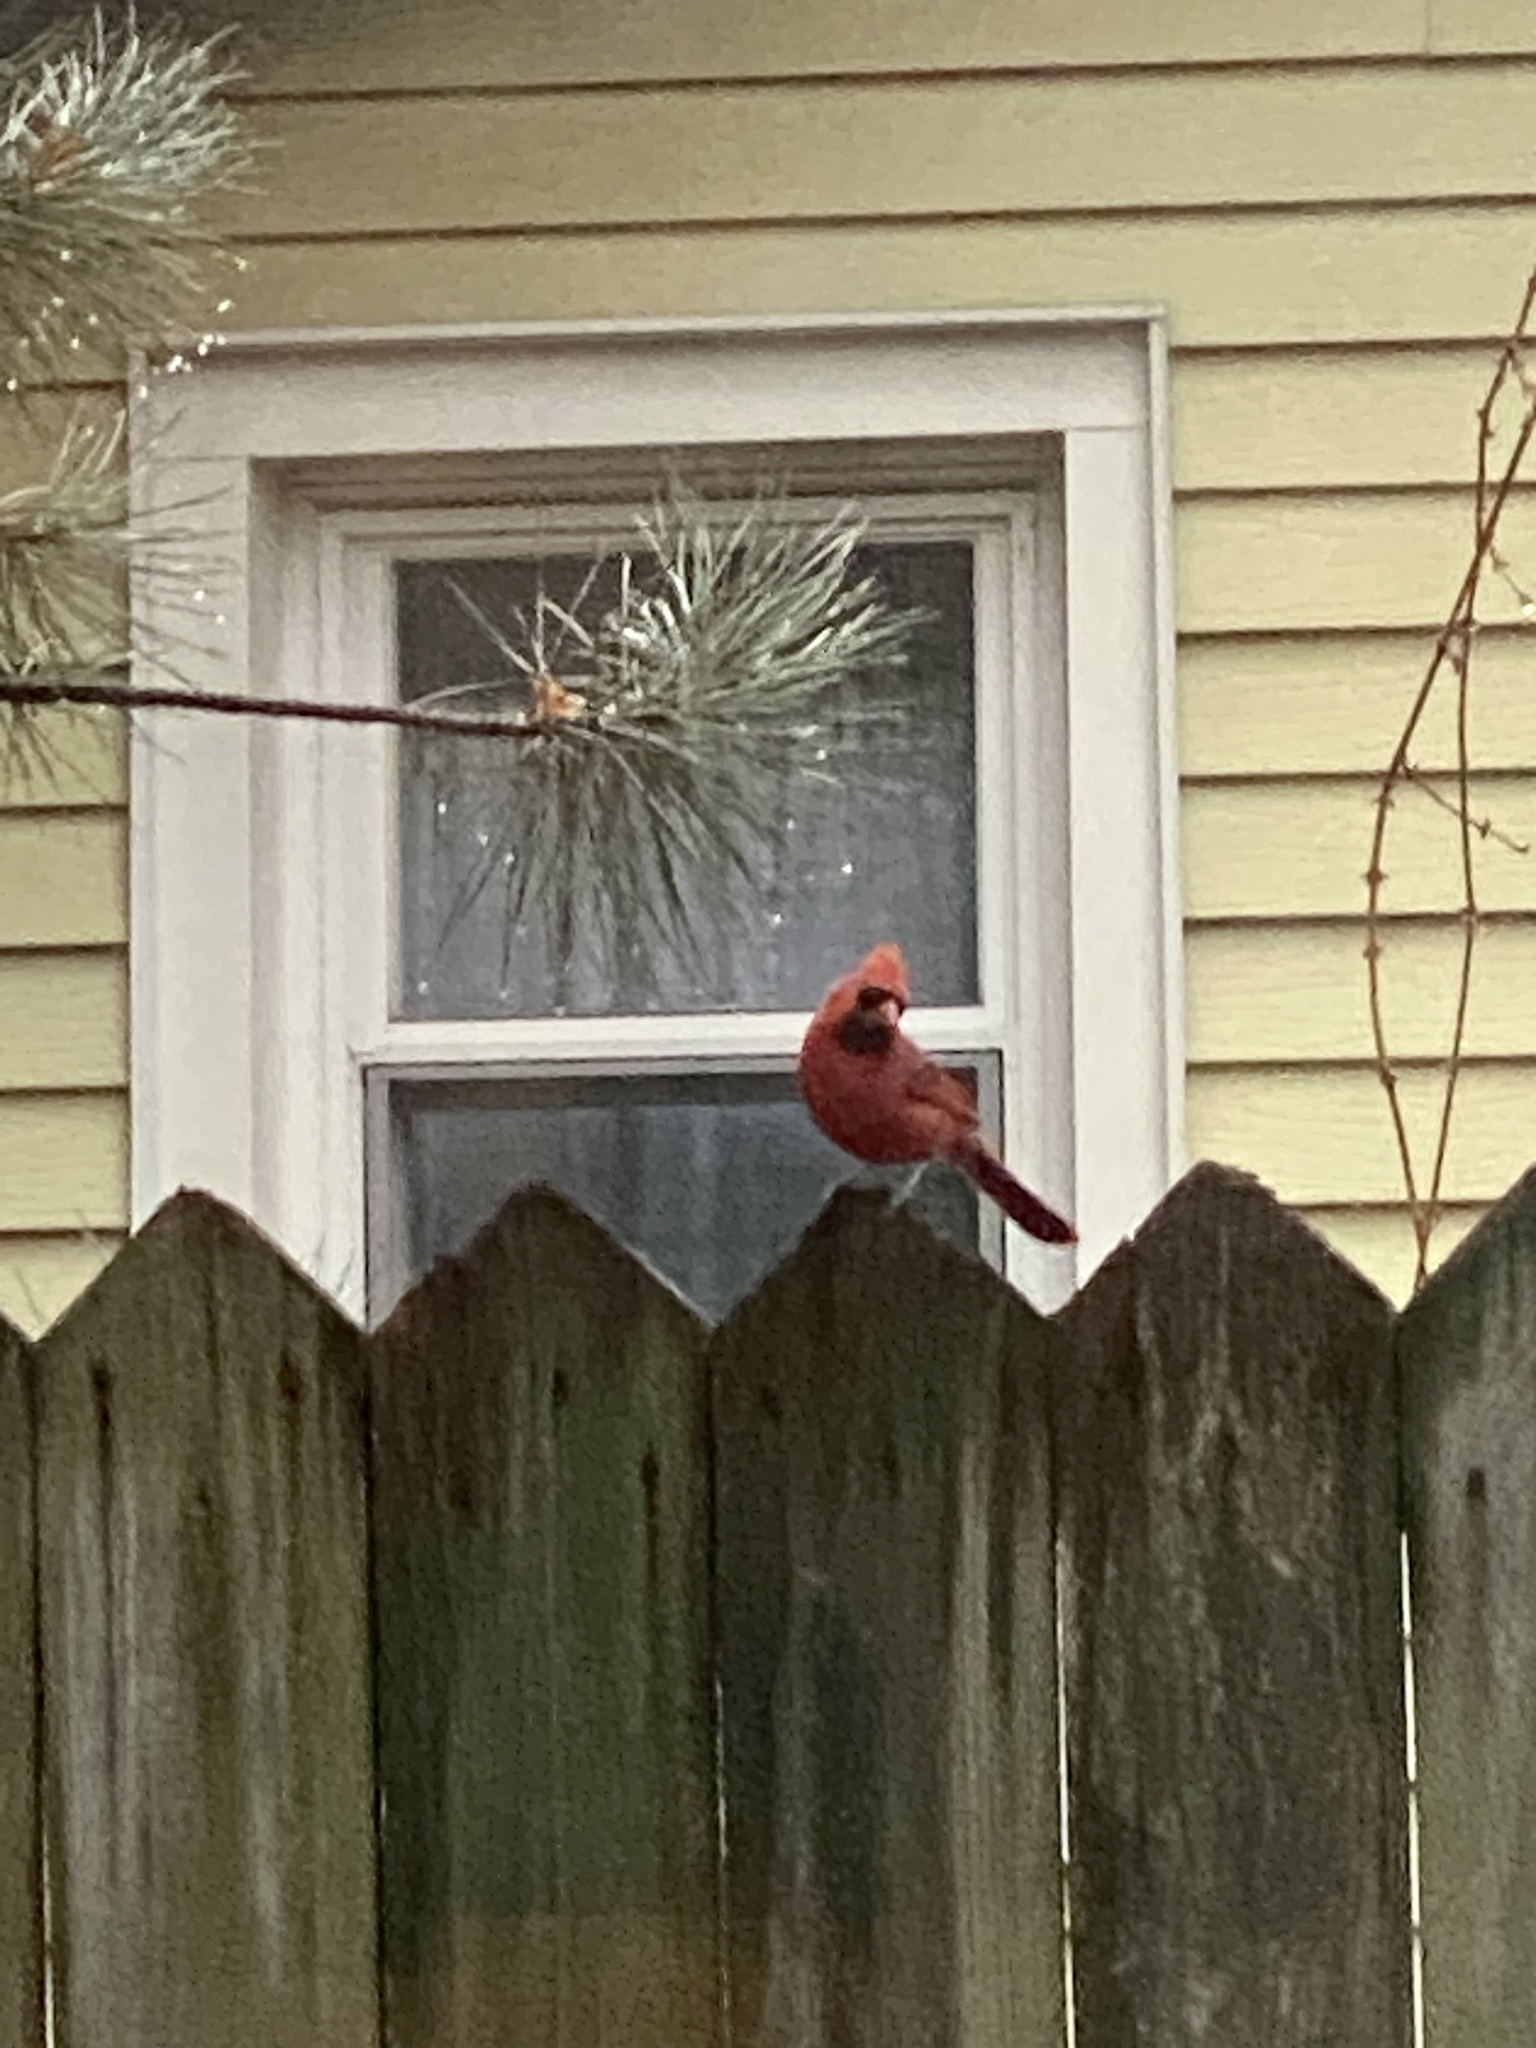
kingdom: Animalia
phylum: Chordata
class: Aves
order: Passeriformes
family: Cardinalidae
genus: Cardinalis
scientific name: Cardinalis cardinalis
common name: Northern cardinal
